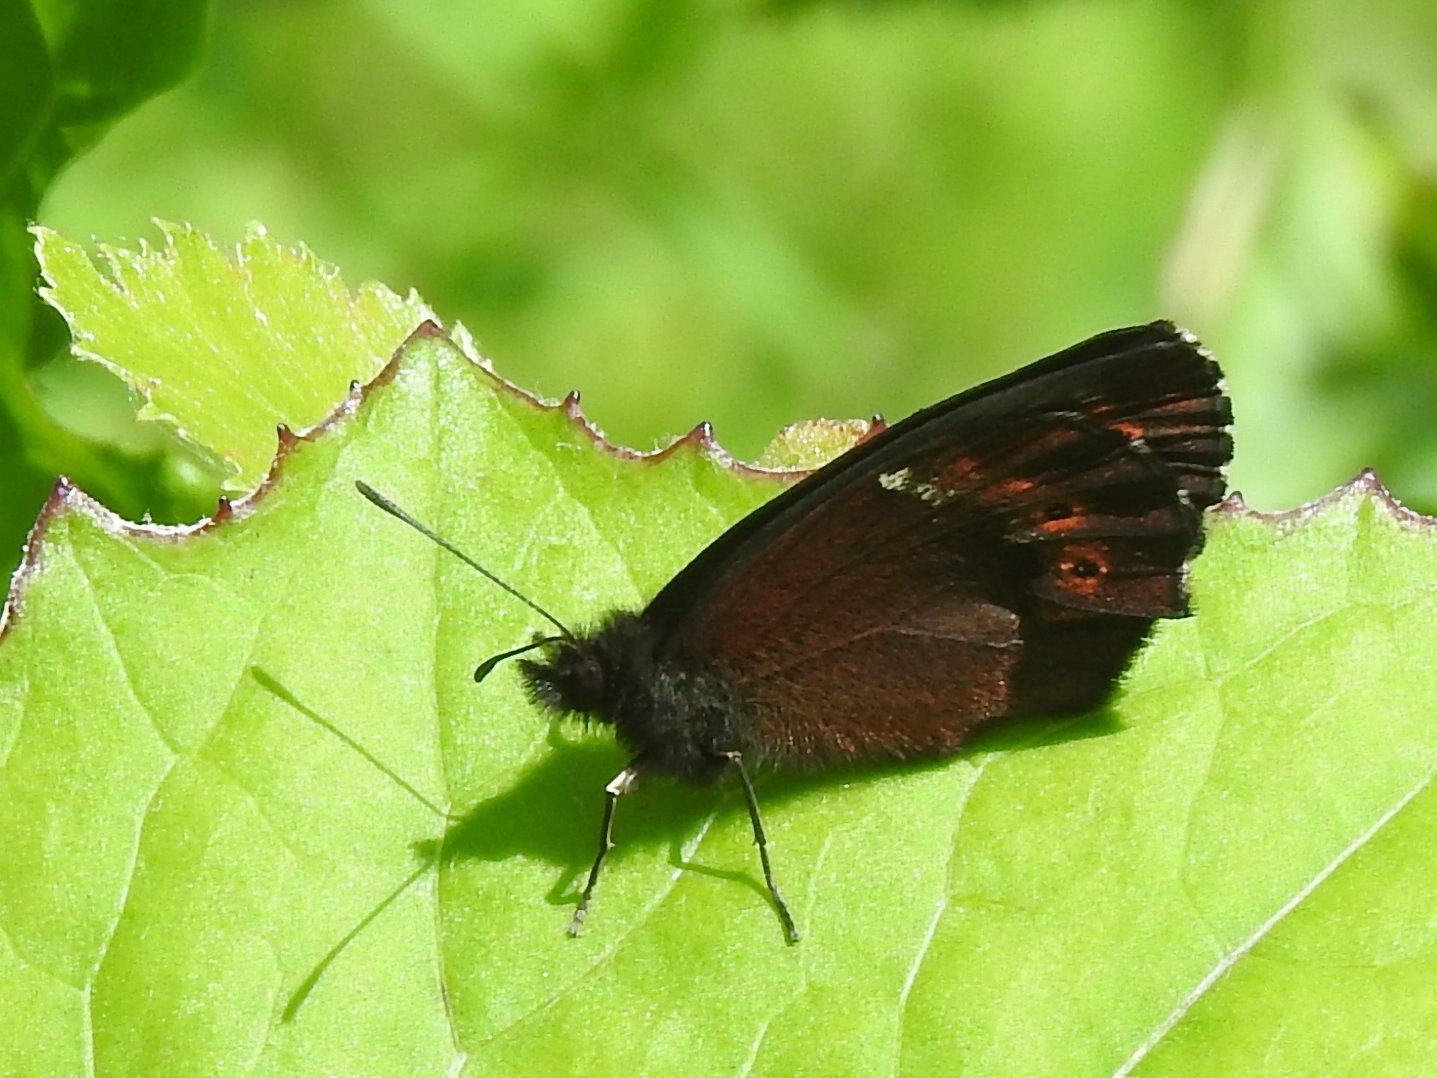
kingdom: Animalia
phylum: Arthropoda
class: Insecta
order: Lepidoptera
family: Nymphalidae
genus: Erebia
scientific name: Erebia ligea
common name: Arran brown
